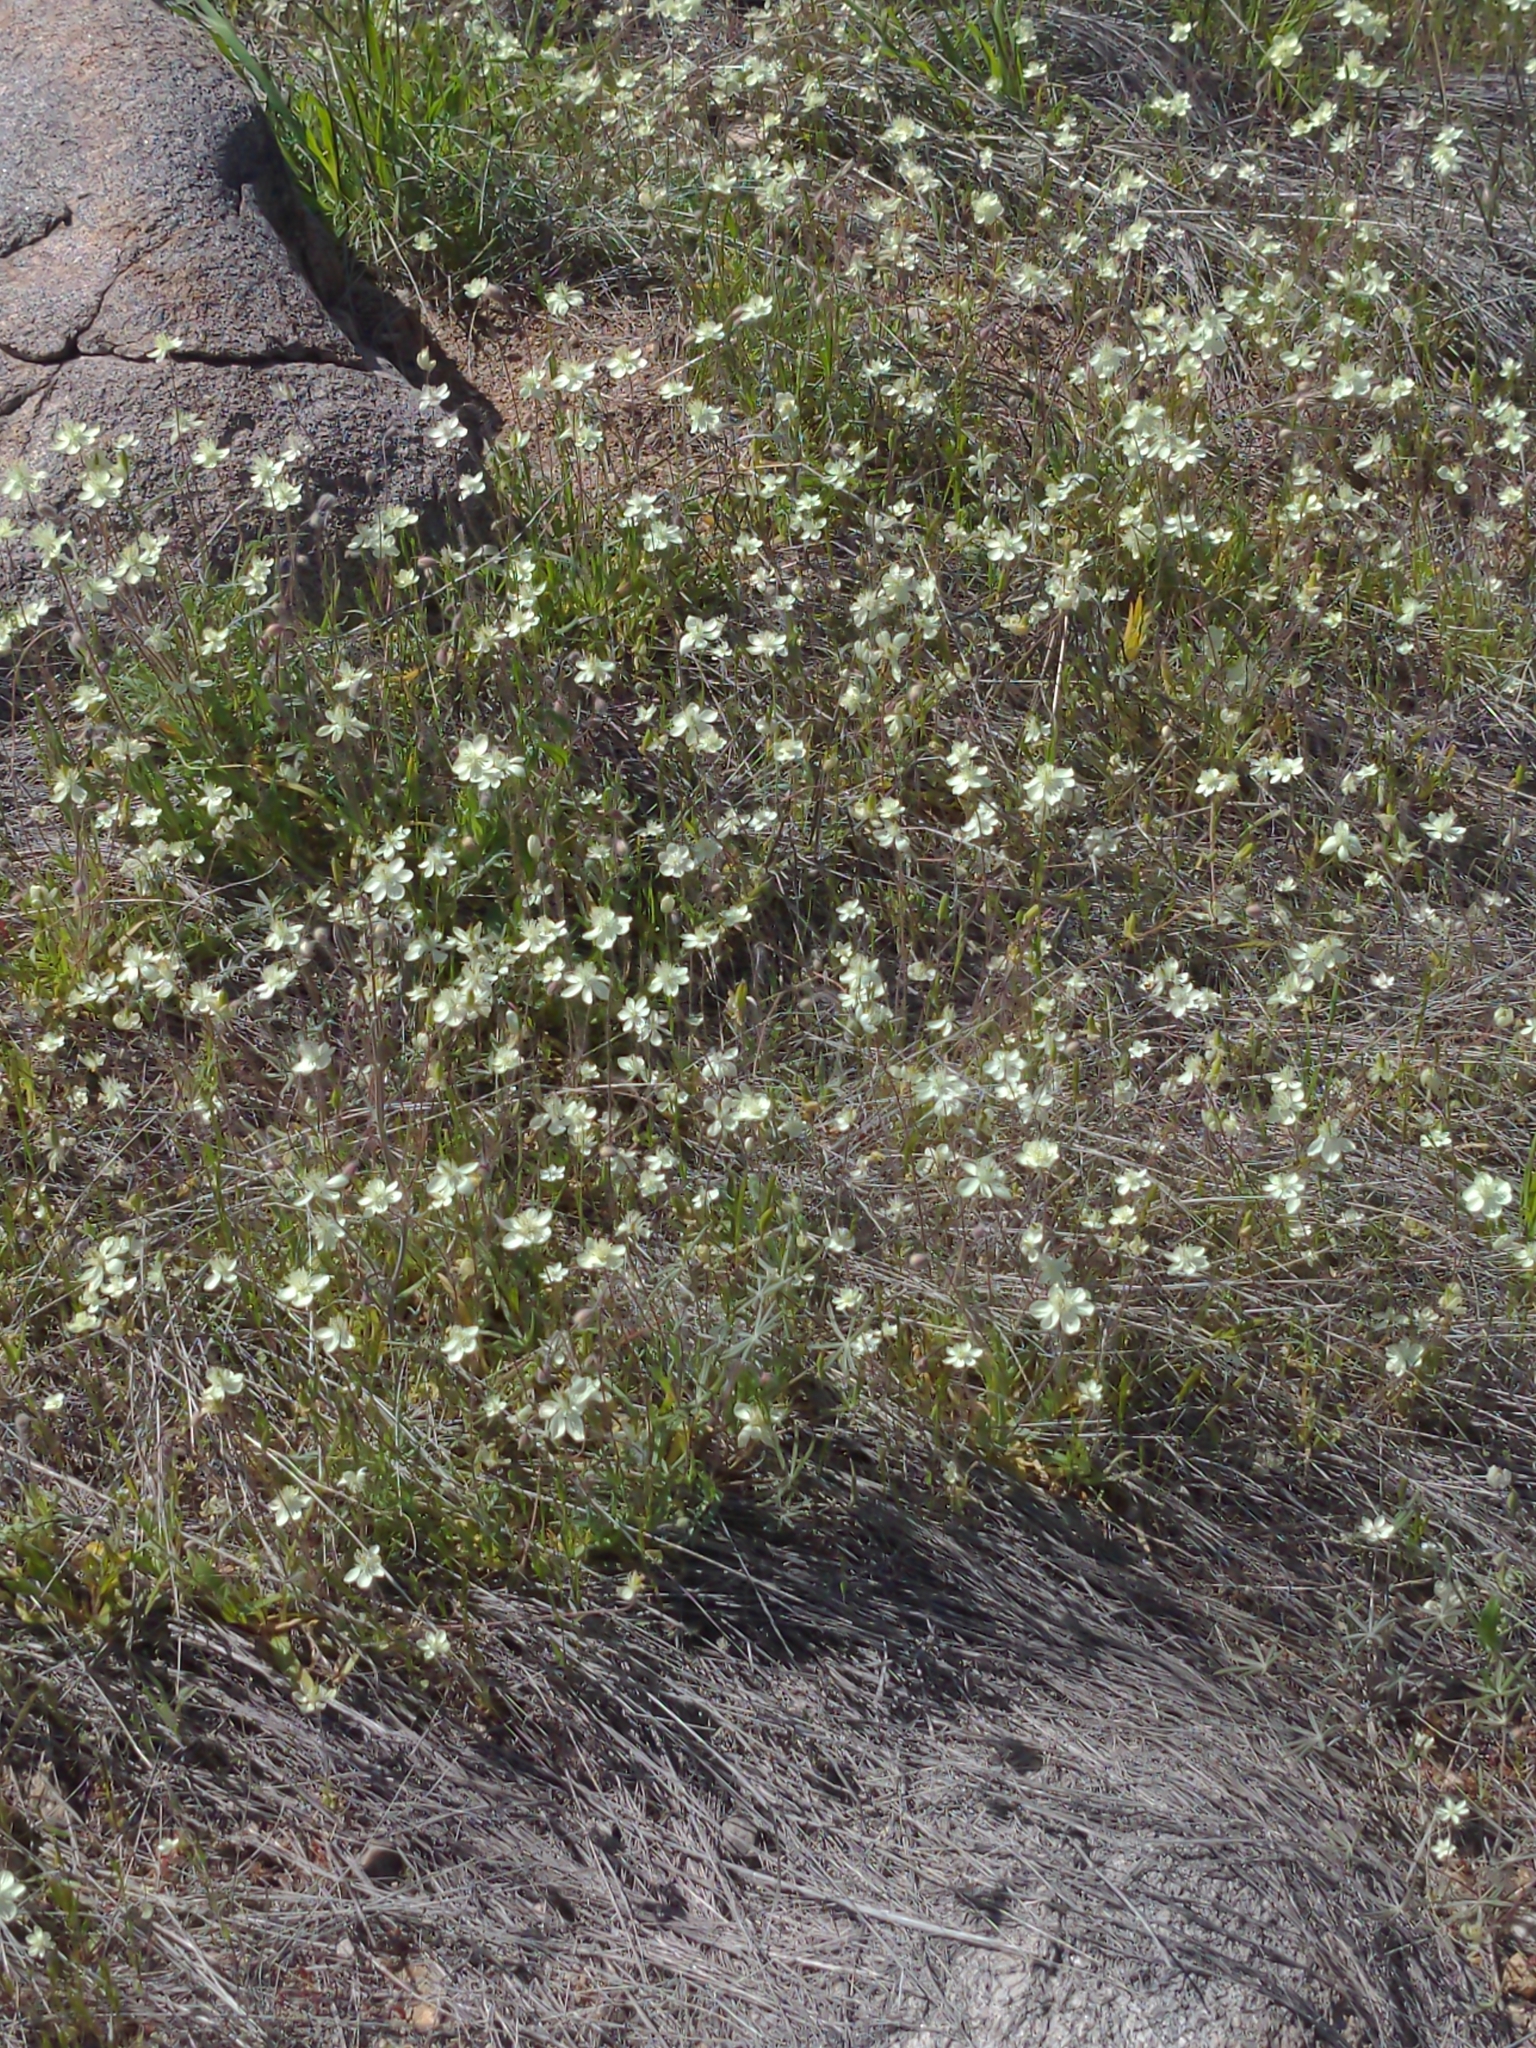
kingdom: Plantae
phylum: Tracheophyta
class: Magnoliopsida
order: Ranunculales
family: Papaveraceae
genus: Platystemon
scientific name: Platystemon californicus
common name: Cream-cups
